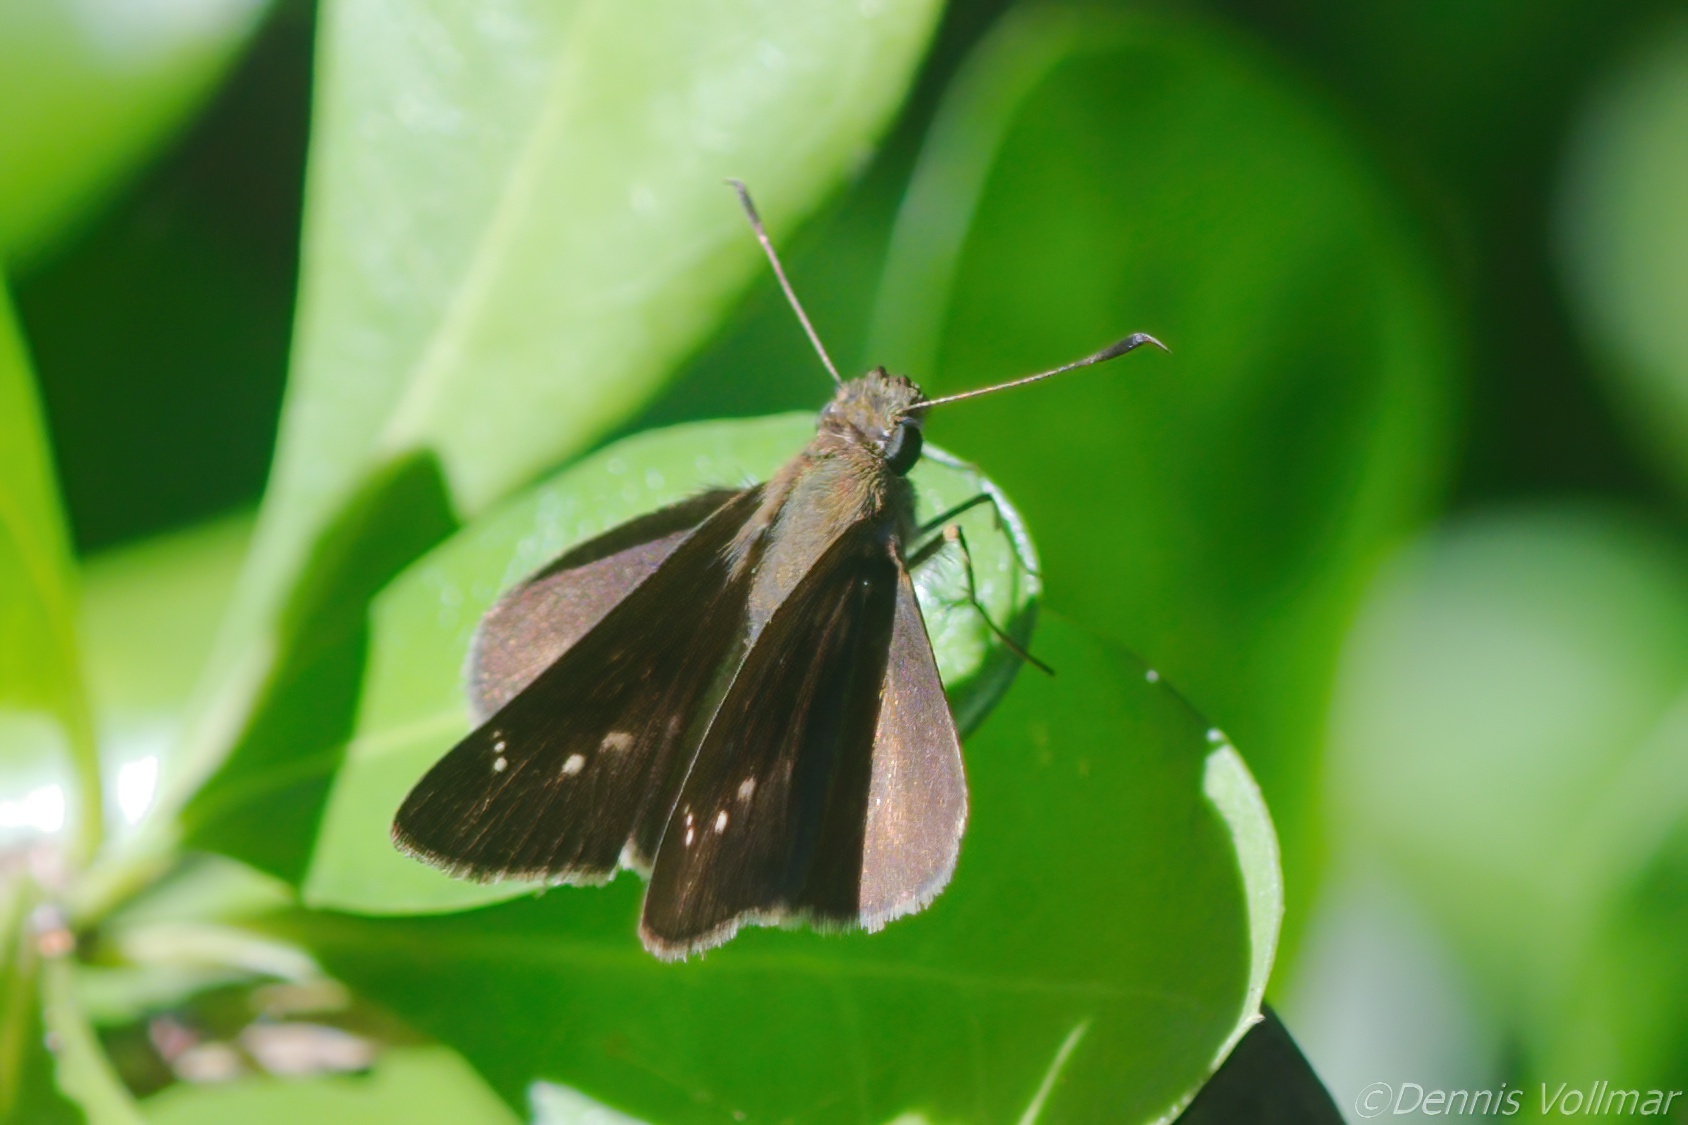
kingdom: Animalia
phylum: Arthropoda
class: Insecta
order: Lepidoptera
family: Hesperiidae
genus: Cymaenes
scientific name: Cymaenes tripunctus
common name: Dingy dotted skipper
